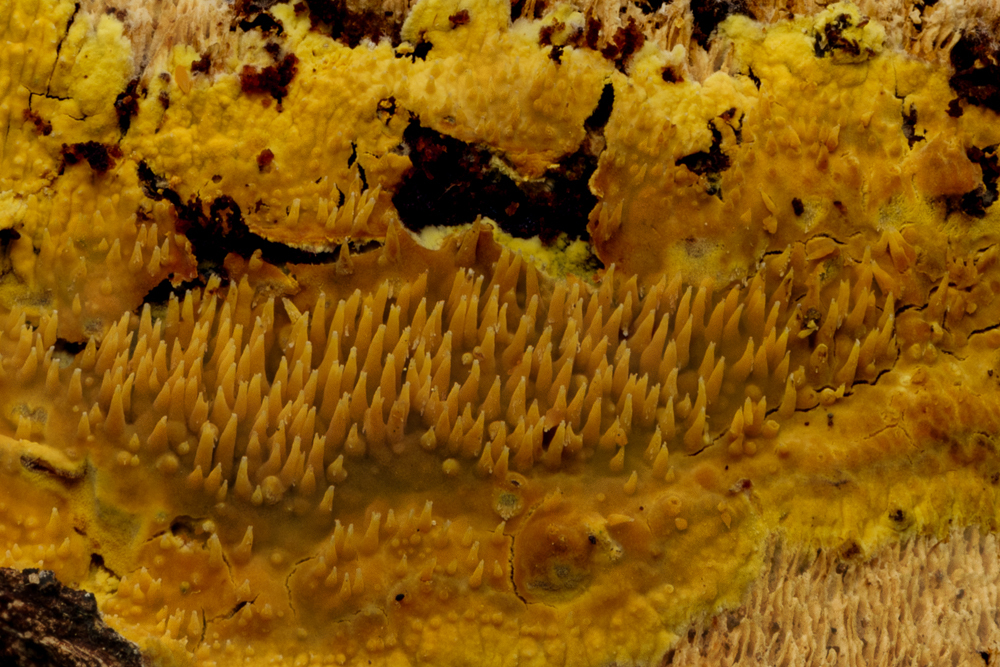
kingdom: Fungi
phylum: Basidiomycota
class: Agaricomycetes
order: Polyporales
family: Meruliaceae
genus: Noblesia
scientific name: Noblesia crocea
